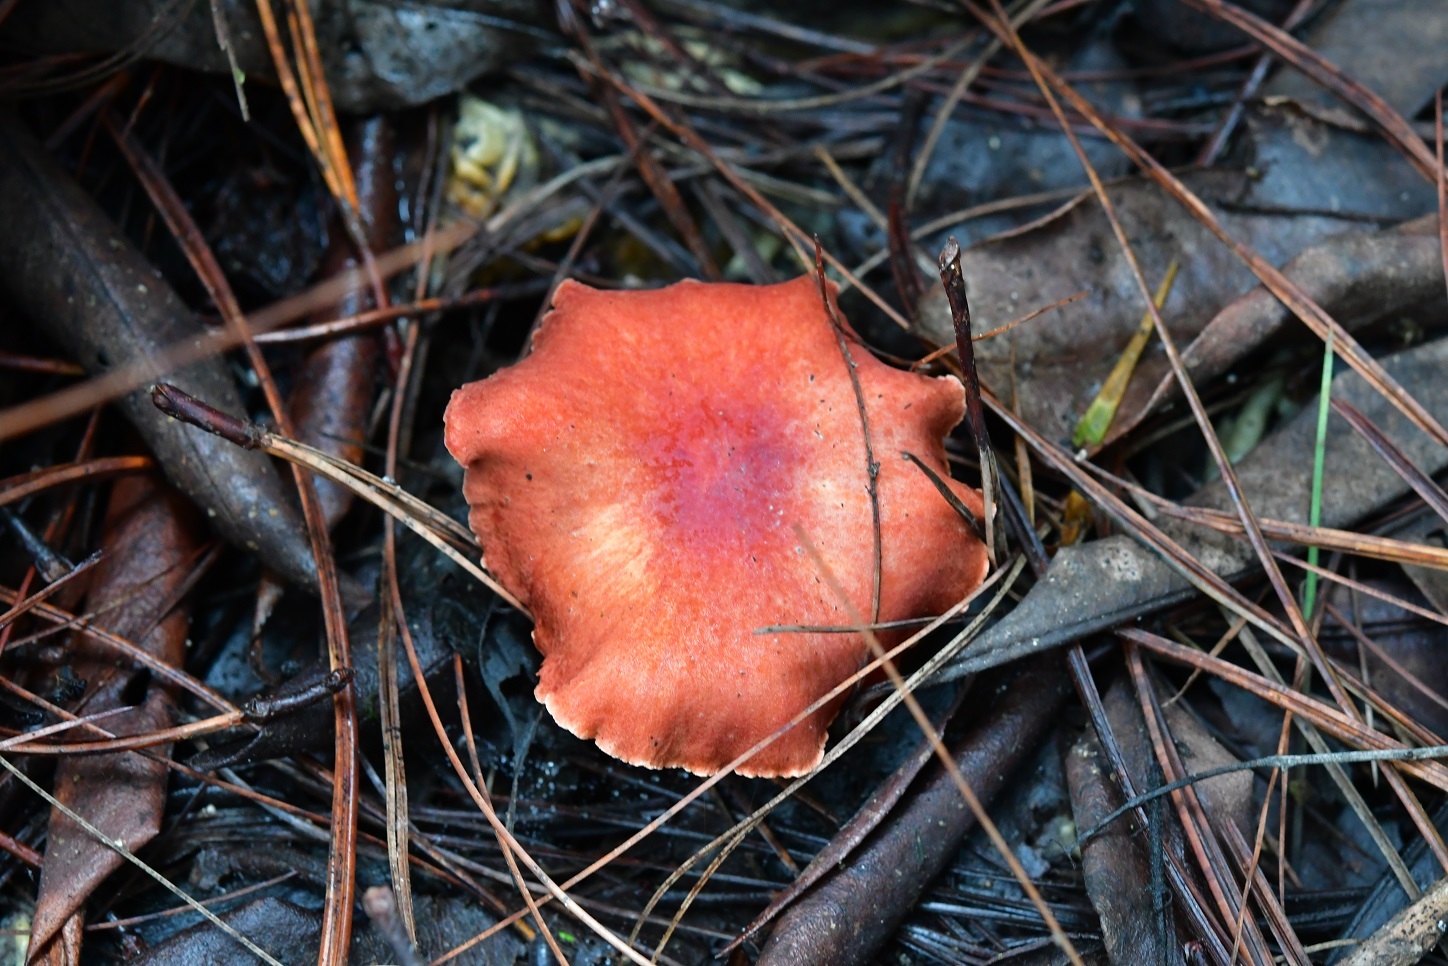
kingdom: Fungi
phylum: Basidiomycota
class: Agaricomycetes
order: Boletales
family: Boletaceae
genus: Tylopilus
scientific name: Tylopilus leucomycelinus
